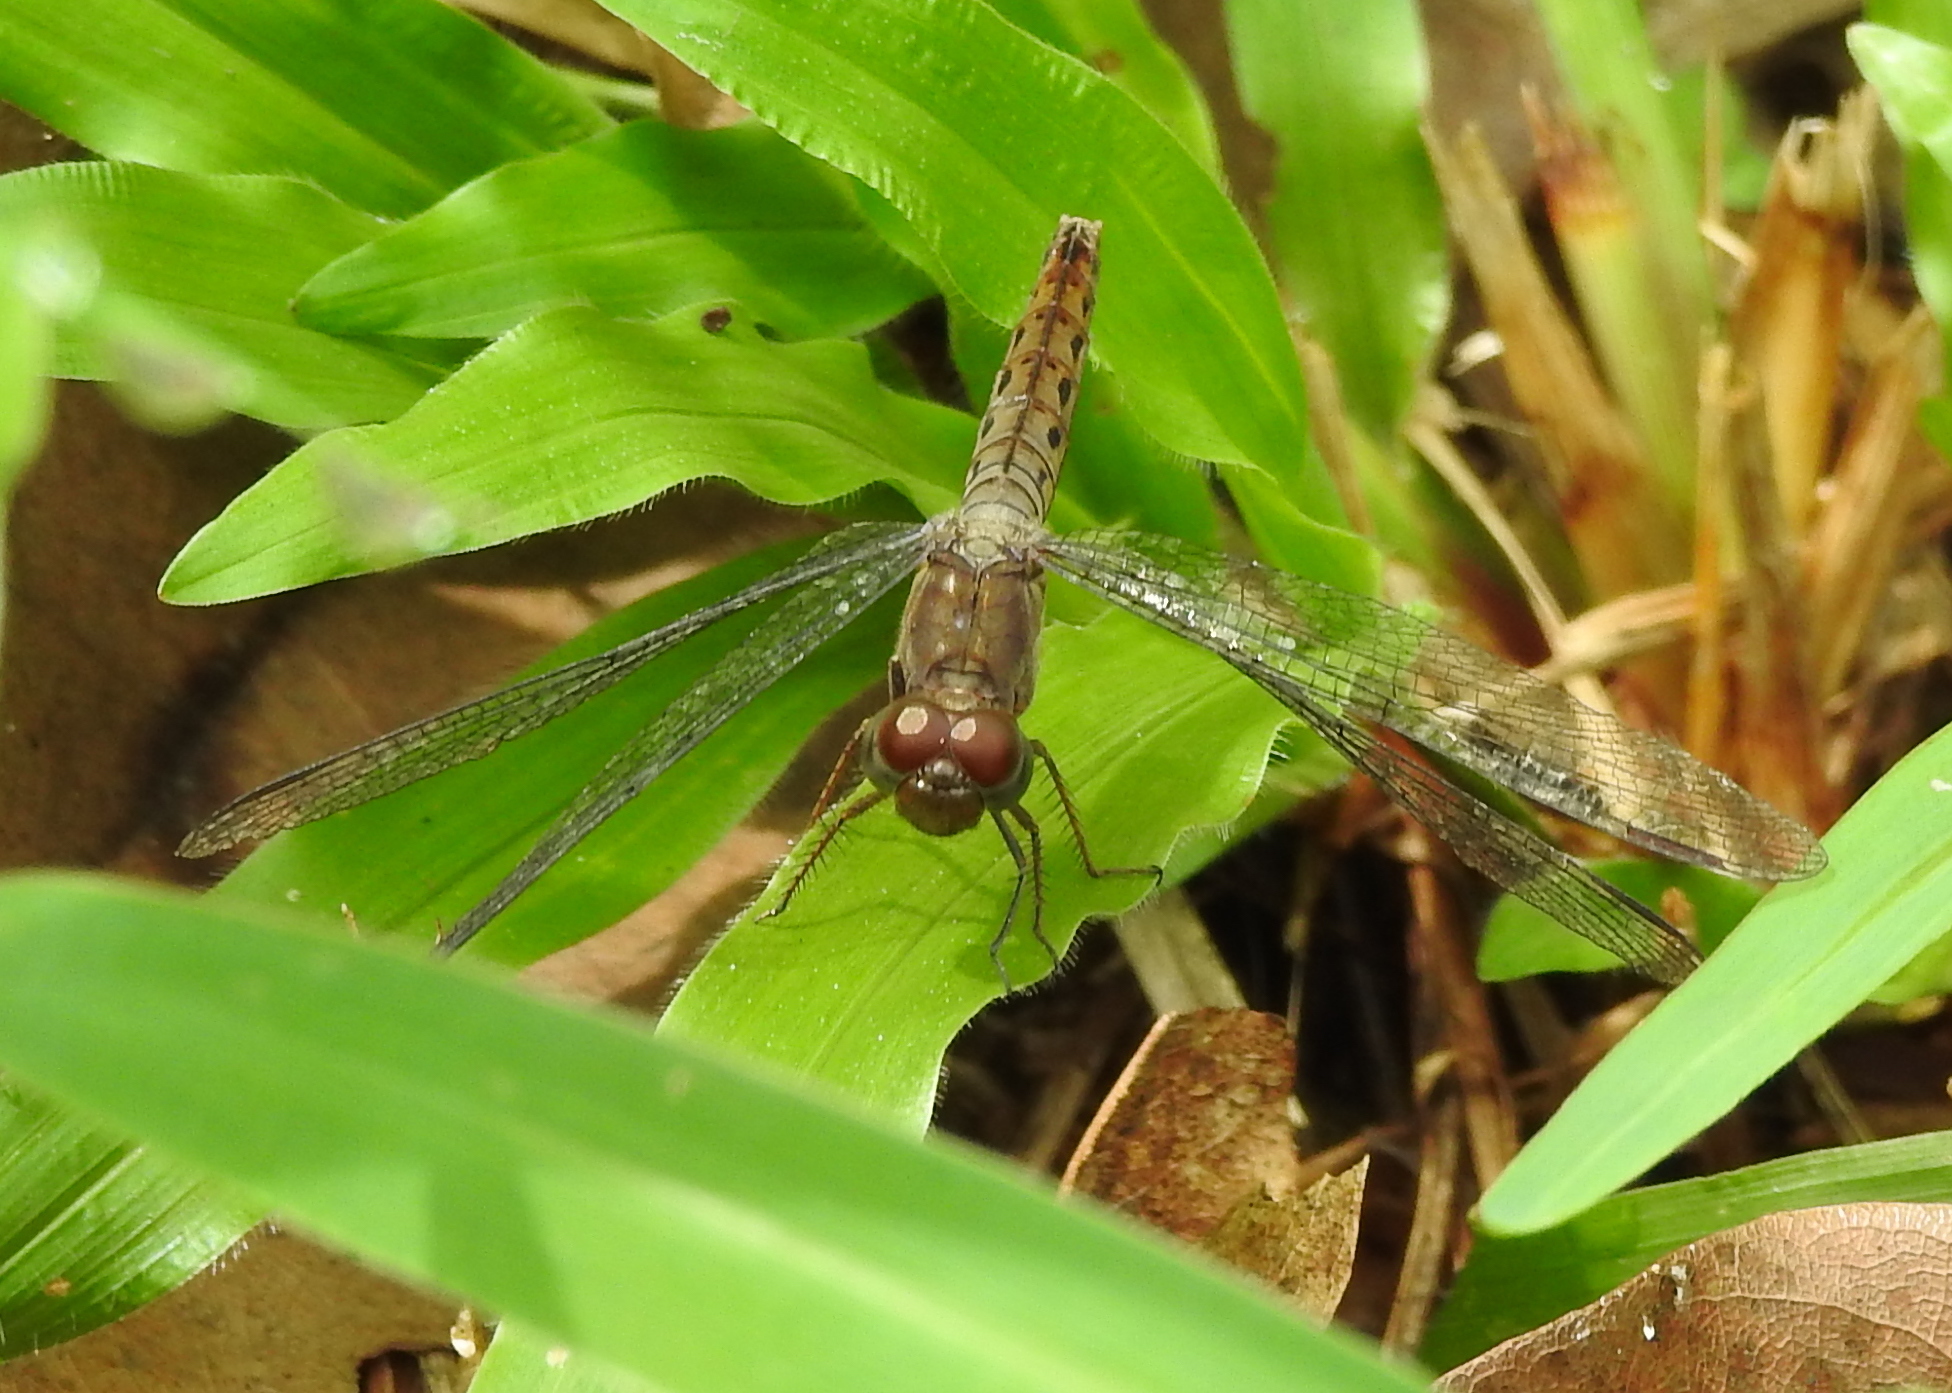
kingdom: Animalia
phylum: Arthropoda
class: Insecta
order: Odonata
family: Libellulidae
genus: Neurothemis
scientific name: Neurothemis fluctuans
